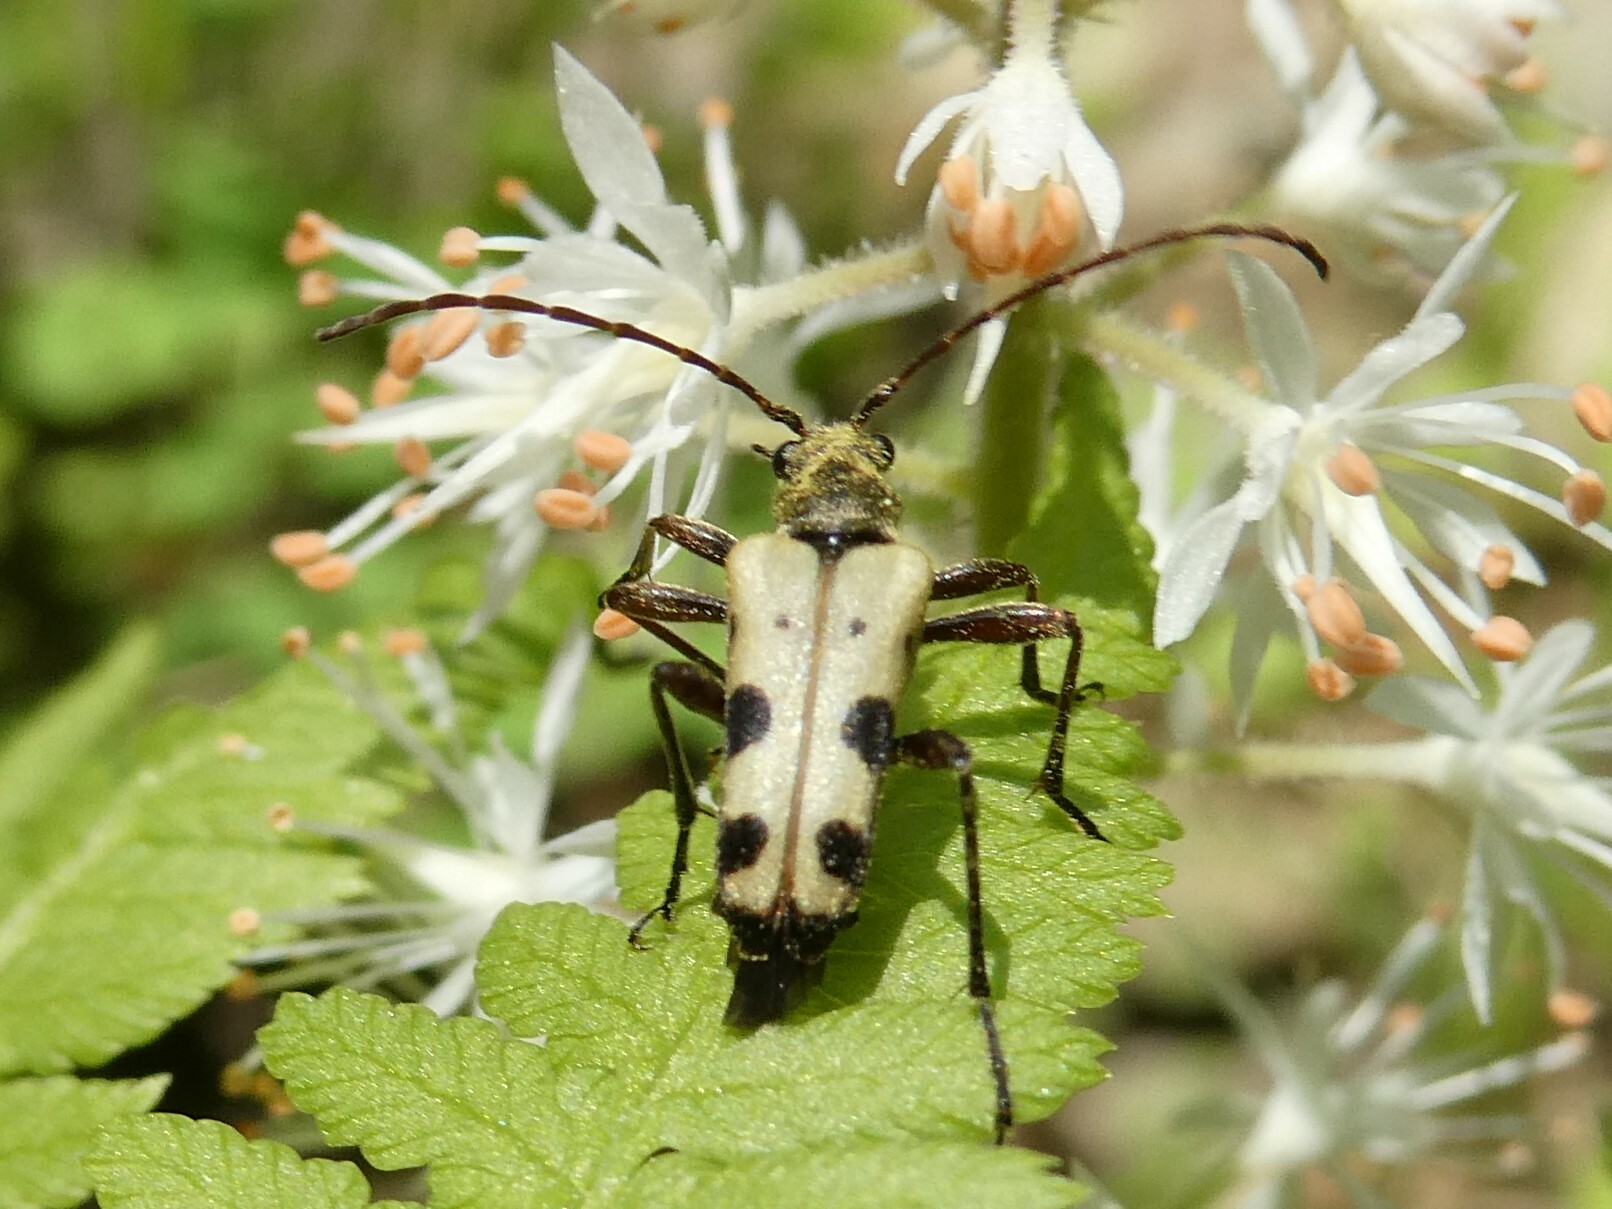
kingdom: Animalia
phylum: Arthropoda
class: Insecta
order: Coleoptera
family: Cerambycidae
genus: Evodinus
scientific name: Evodinus monticola
